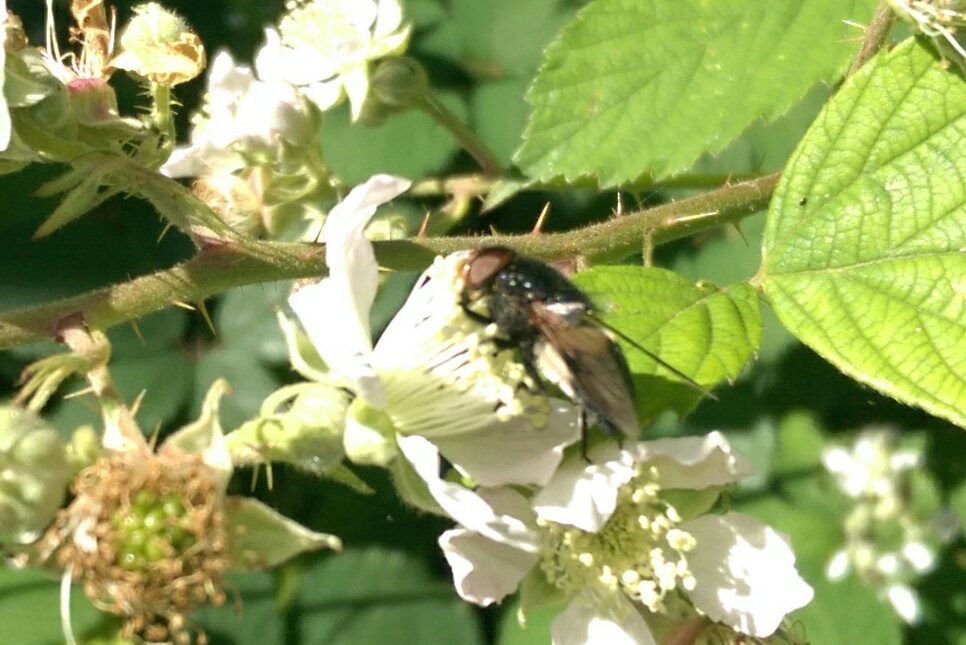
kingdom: Animalia
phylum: Arthropoda
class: Insecta
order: Diptera
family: Syrphidae
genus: Volucella
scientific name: Volucella pellucens
